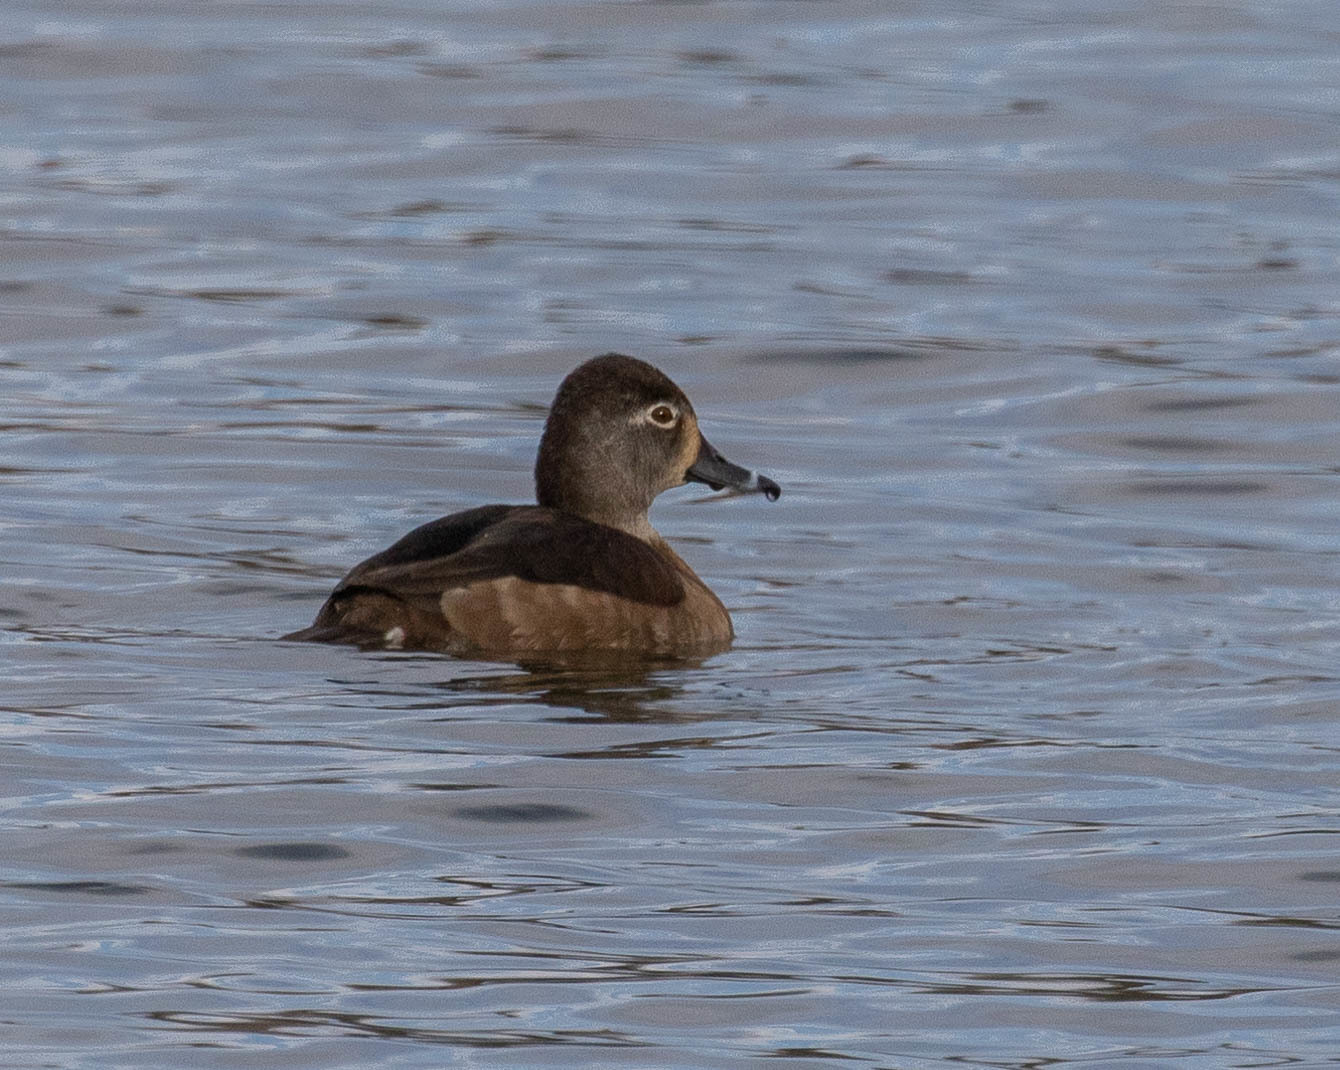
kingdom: Animalia
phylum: Chordata
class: Aves
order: Anseriformes
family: Anatidae
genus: Aythya
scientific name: Aythya collaris
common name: Ring-necked duck
